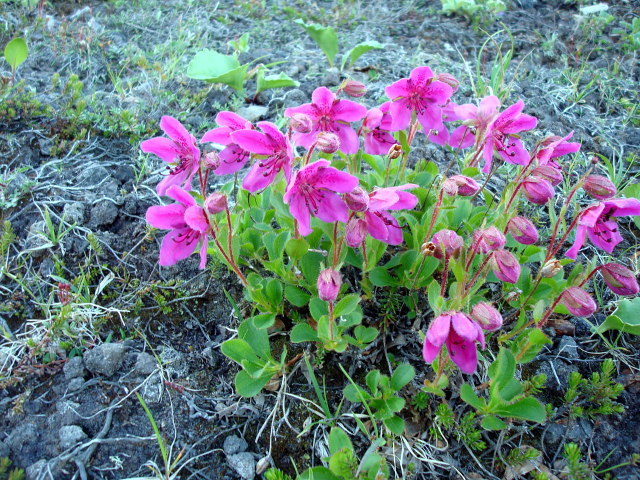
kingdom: Plantae
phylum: Tracheophyta
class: Magnoliopsida
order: Ericales
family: Ericaceae
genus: Rhododendron
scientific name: Rhododendron camtschaticum
